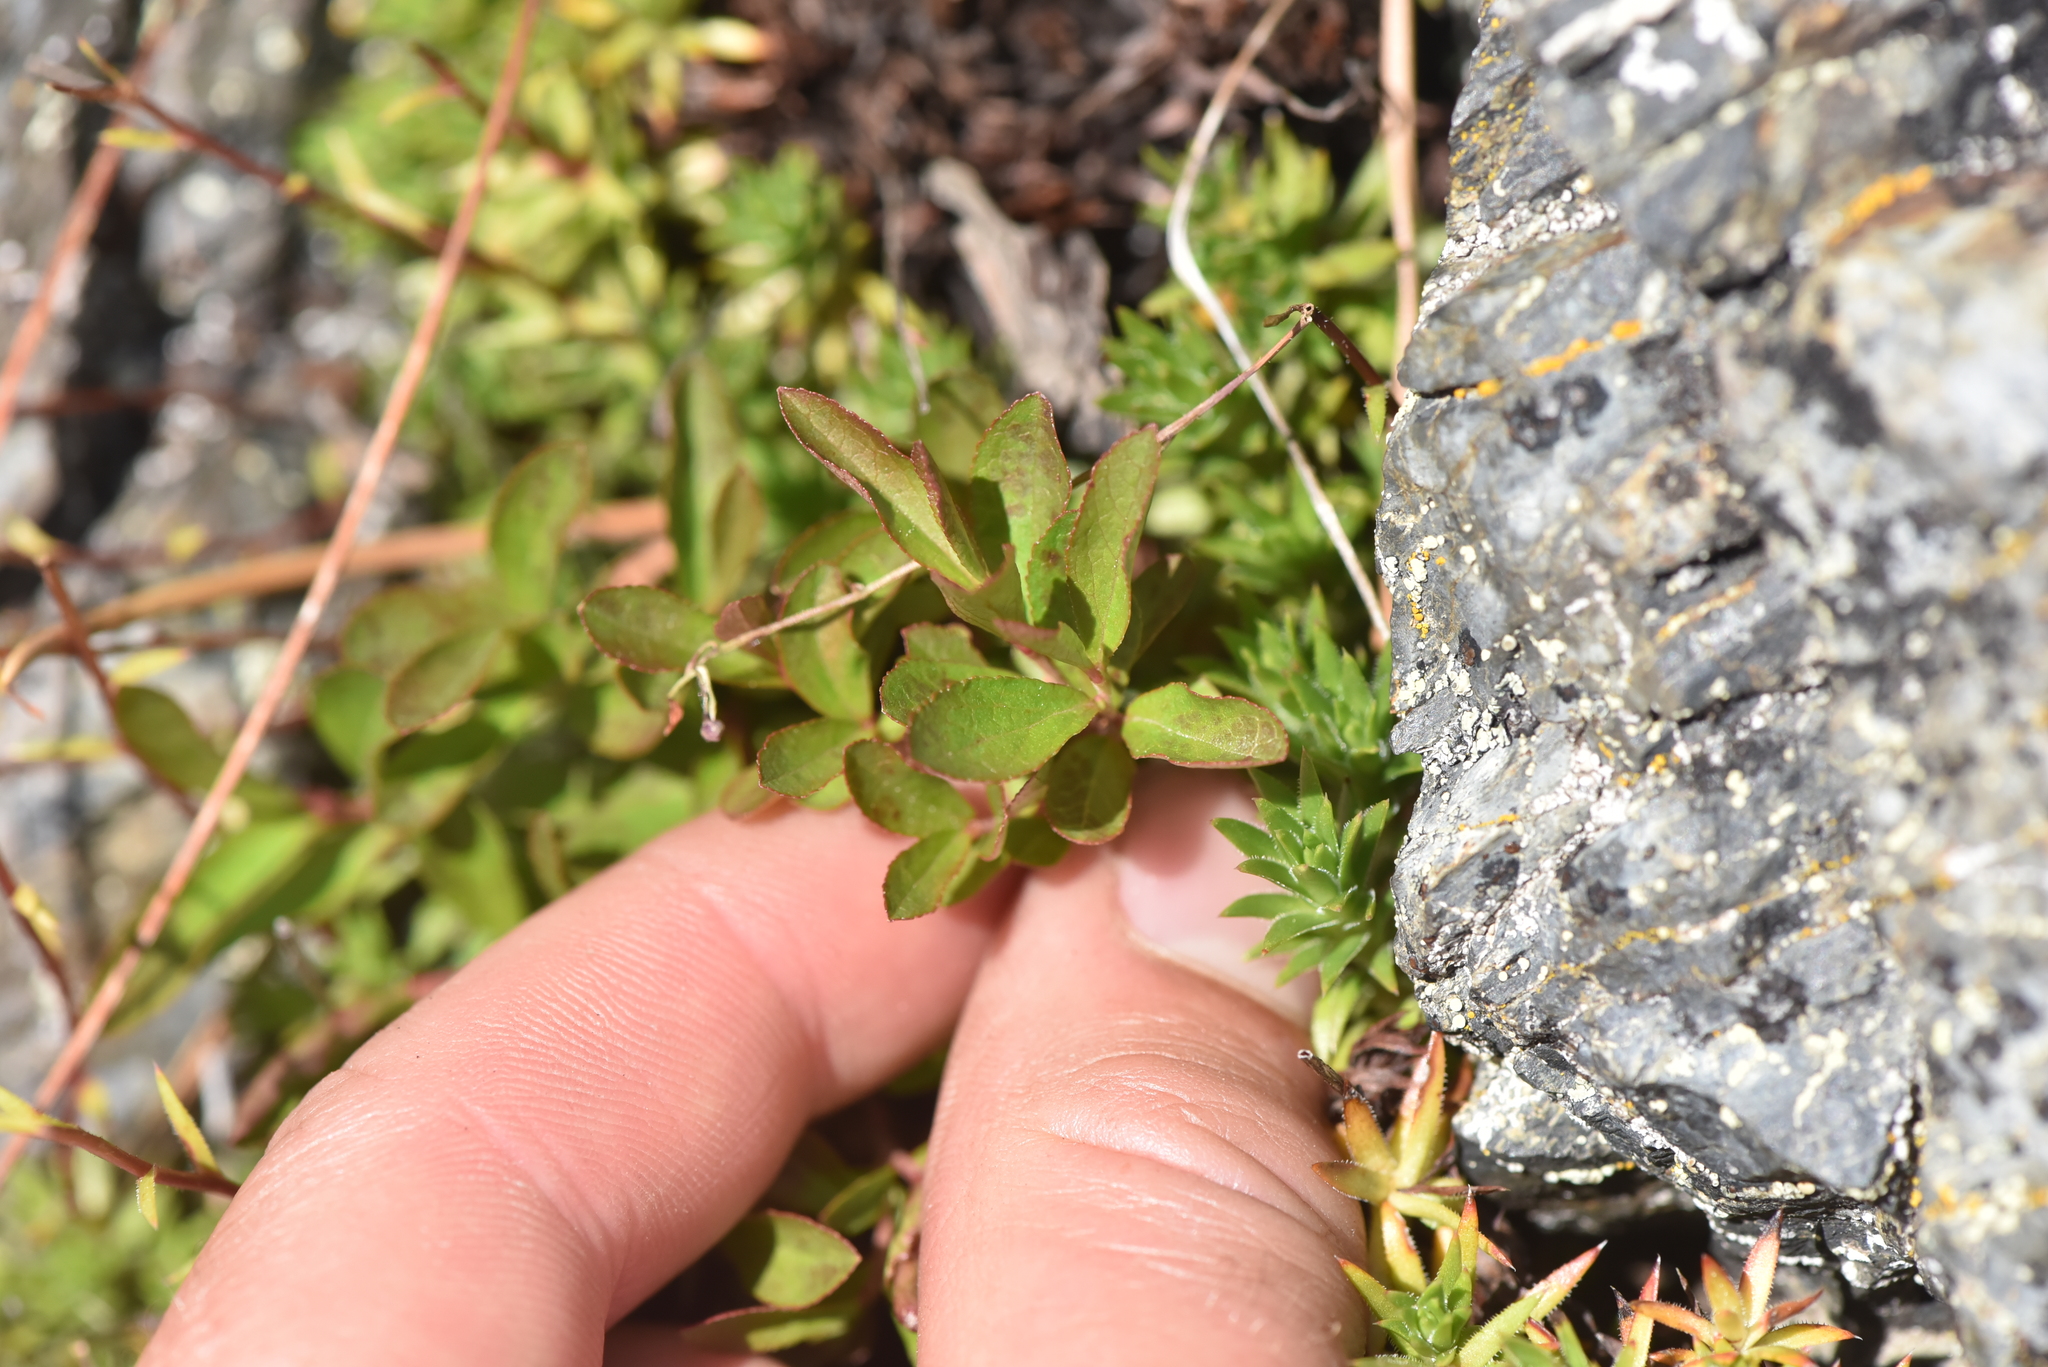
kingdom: Plantae
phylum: Tracheophyta
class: Magnoliopsida
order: Ericales
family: Ericaceae
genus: Vaccinium
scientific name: Vaccinium cespitosum
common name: Dwarf bilberry
